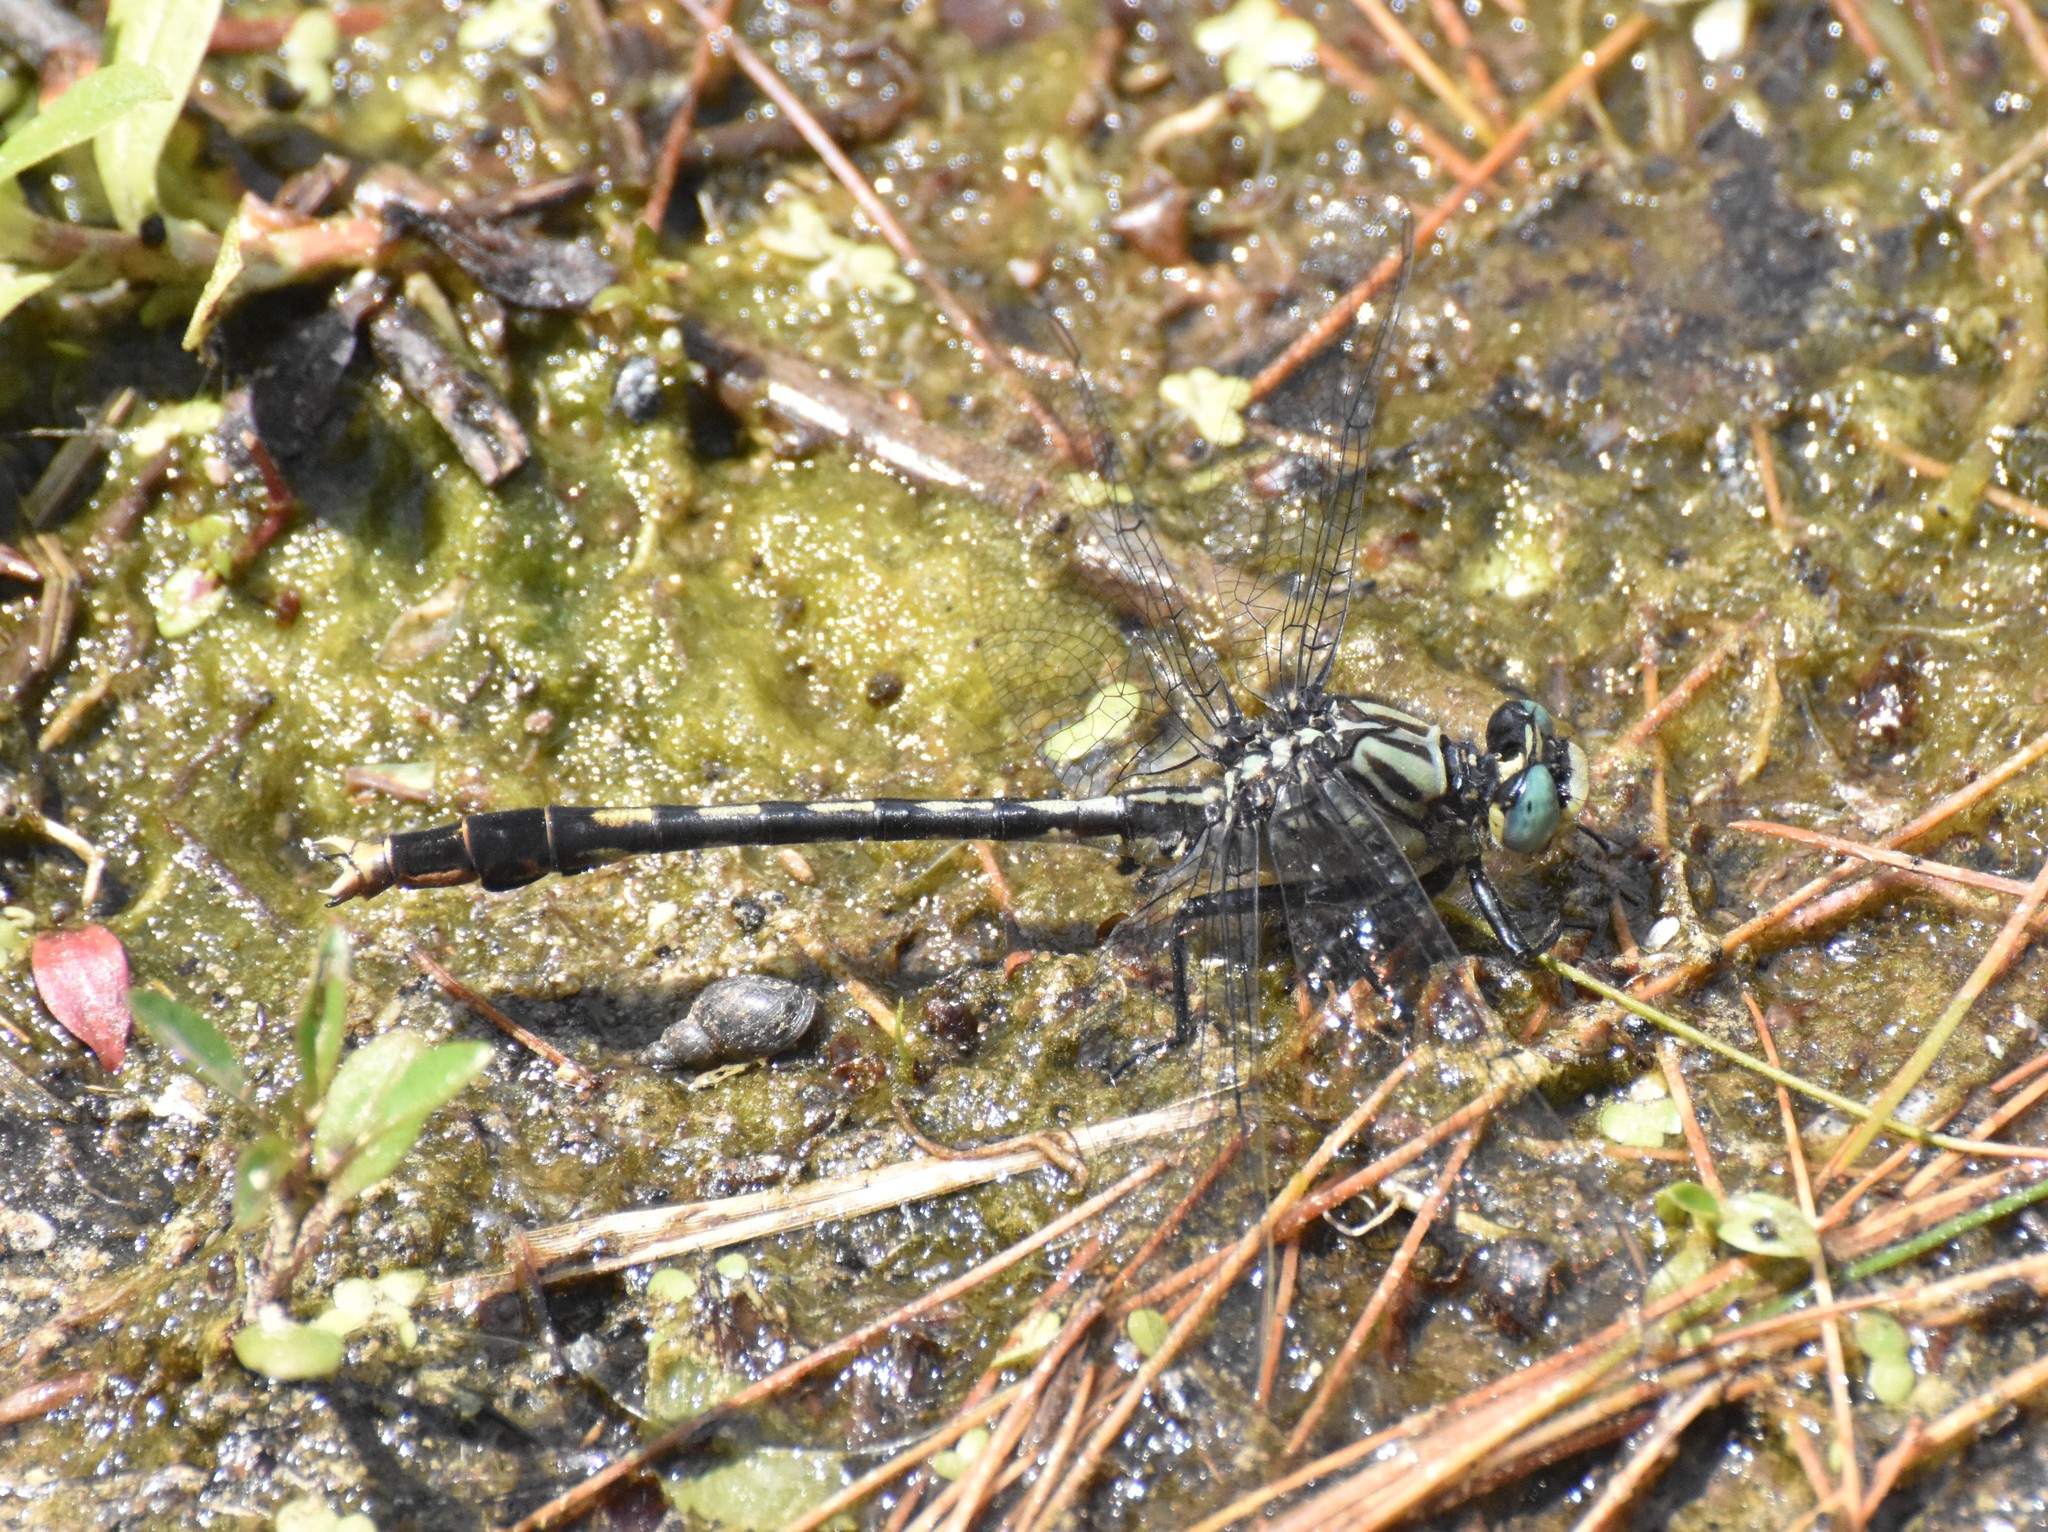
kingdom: Animalia
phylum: Arthropoda
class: Insecta
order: Odonata
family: Gomphidae
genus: Arigomphus
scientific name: Arigomphus villosipes
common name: Unicorn clubtail
